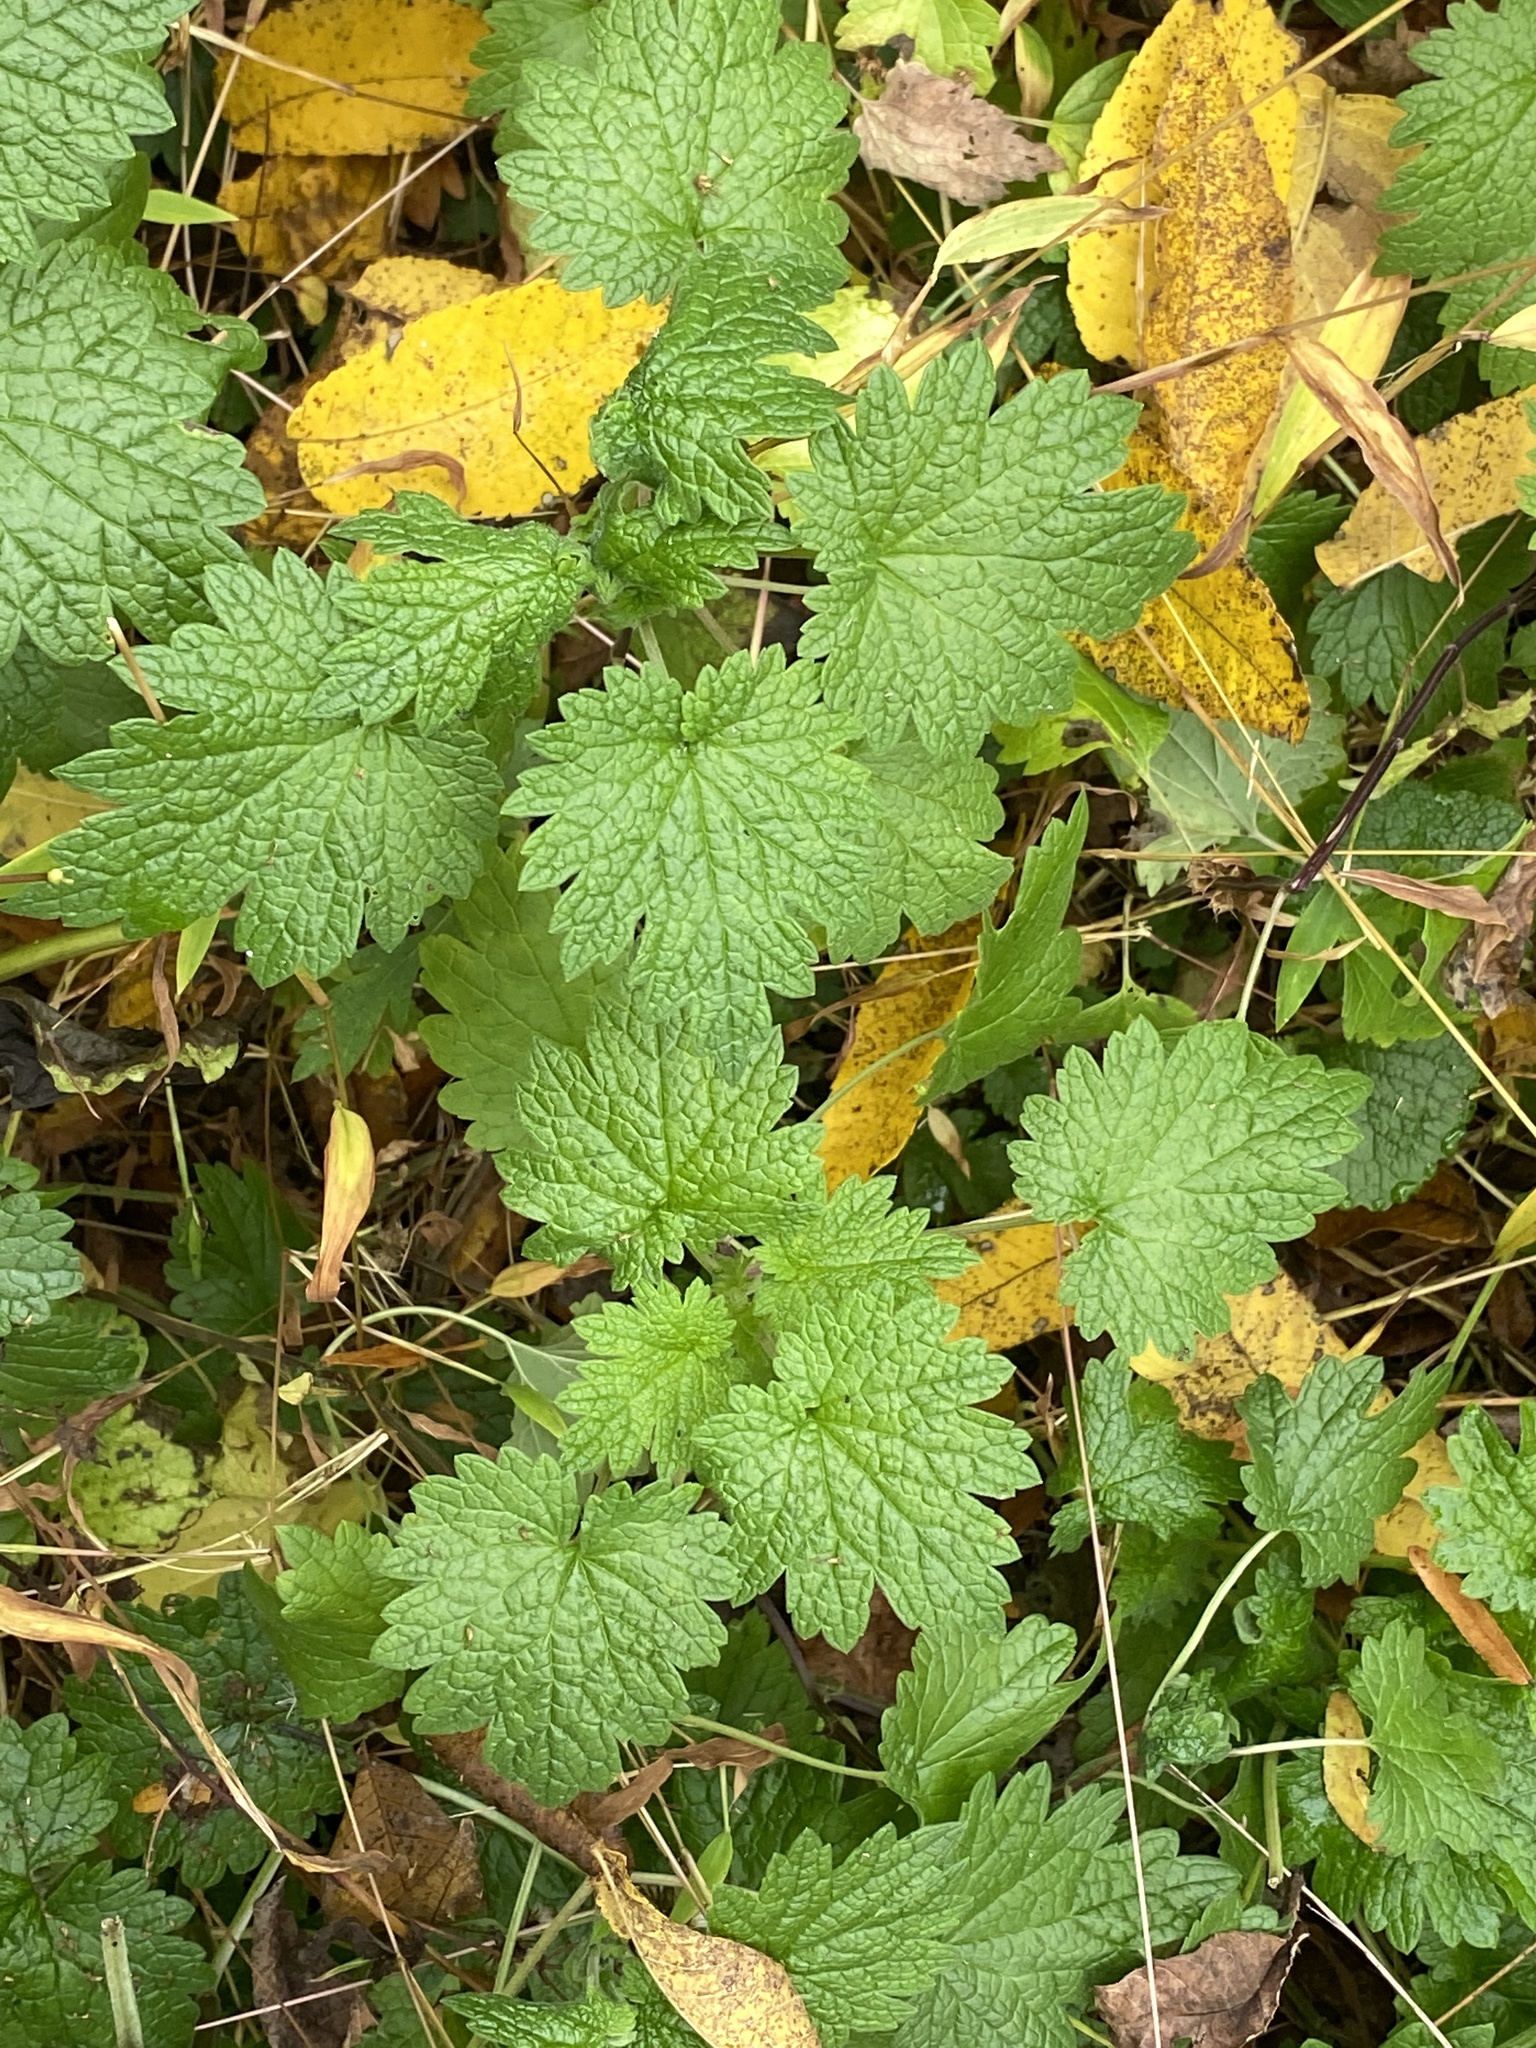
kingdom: Plantae
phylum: Tracheophyta
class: Magnoliopsida
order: Lamiales
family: Lamiaceae
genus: Leonurus
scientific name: Leonurus cardiaca
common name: Motherwort
